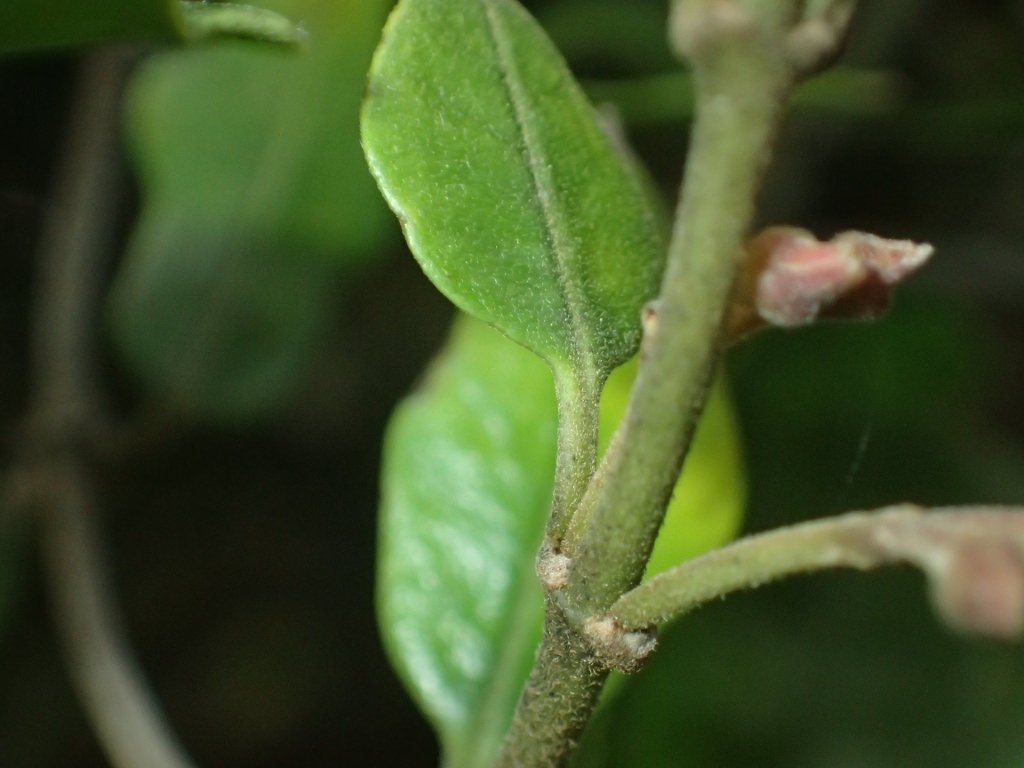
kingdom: Plantae
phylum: Tracheophyta
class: Magnoliopsida
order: Gentianales
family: Apocynaceae
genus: Parsonsia
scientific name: Parsonsia heterophylla
